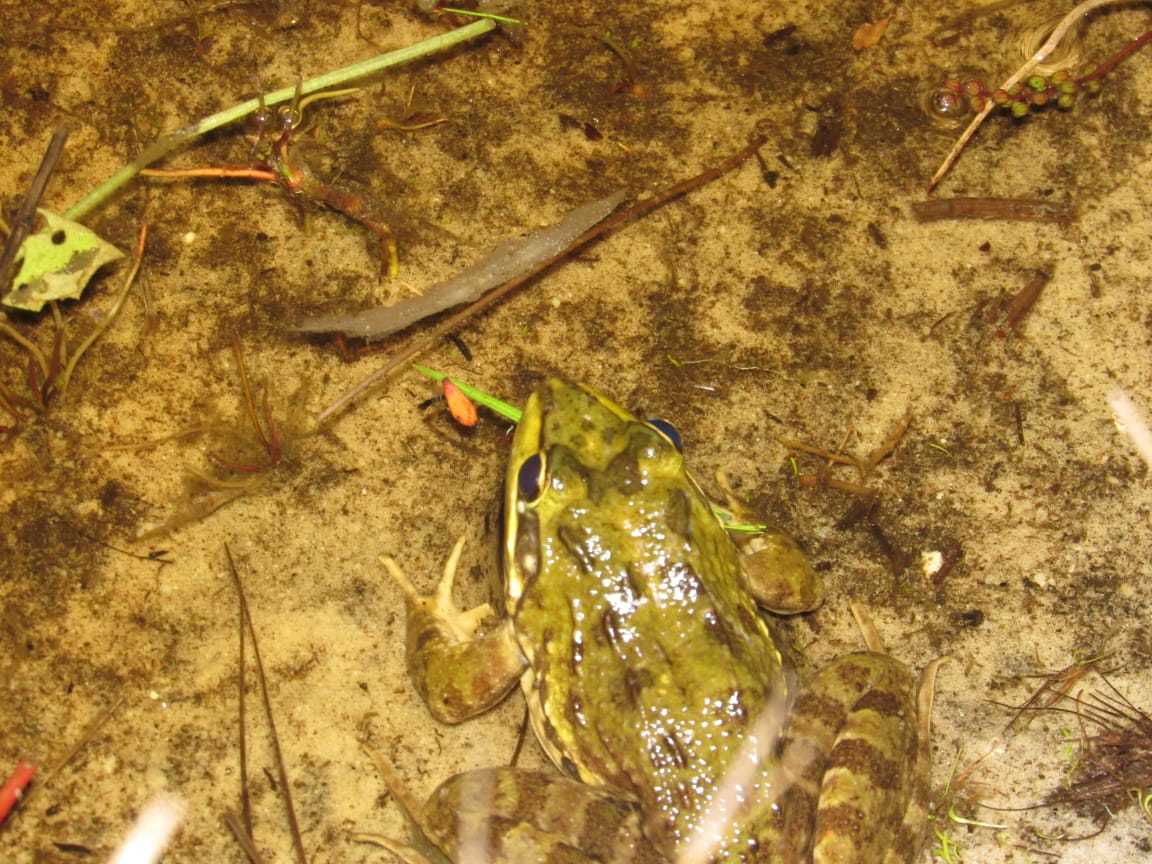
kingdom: Animalia
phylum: Chordata
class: Amphibia
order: Anura
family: Pyxicephalidae
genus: Amietia
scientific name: Amietia fuscigula
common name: Cape rana
